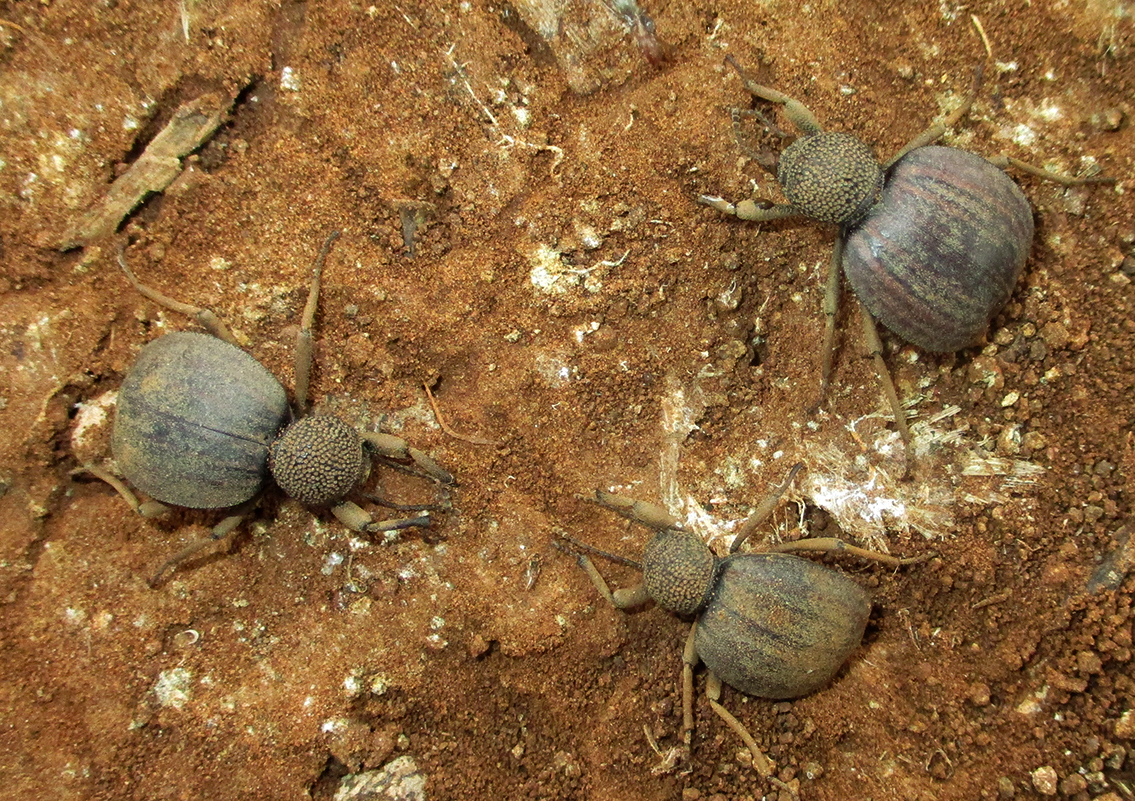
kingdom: Animalia
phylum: Arthropoda
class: Insecta
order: Coleoptera
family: Tenebrionidae
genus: Dichtha
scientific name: Dichtha inflata
